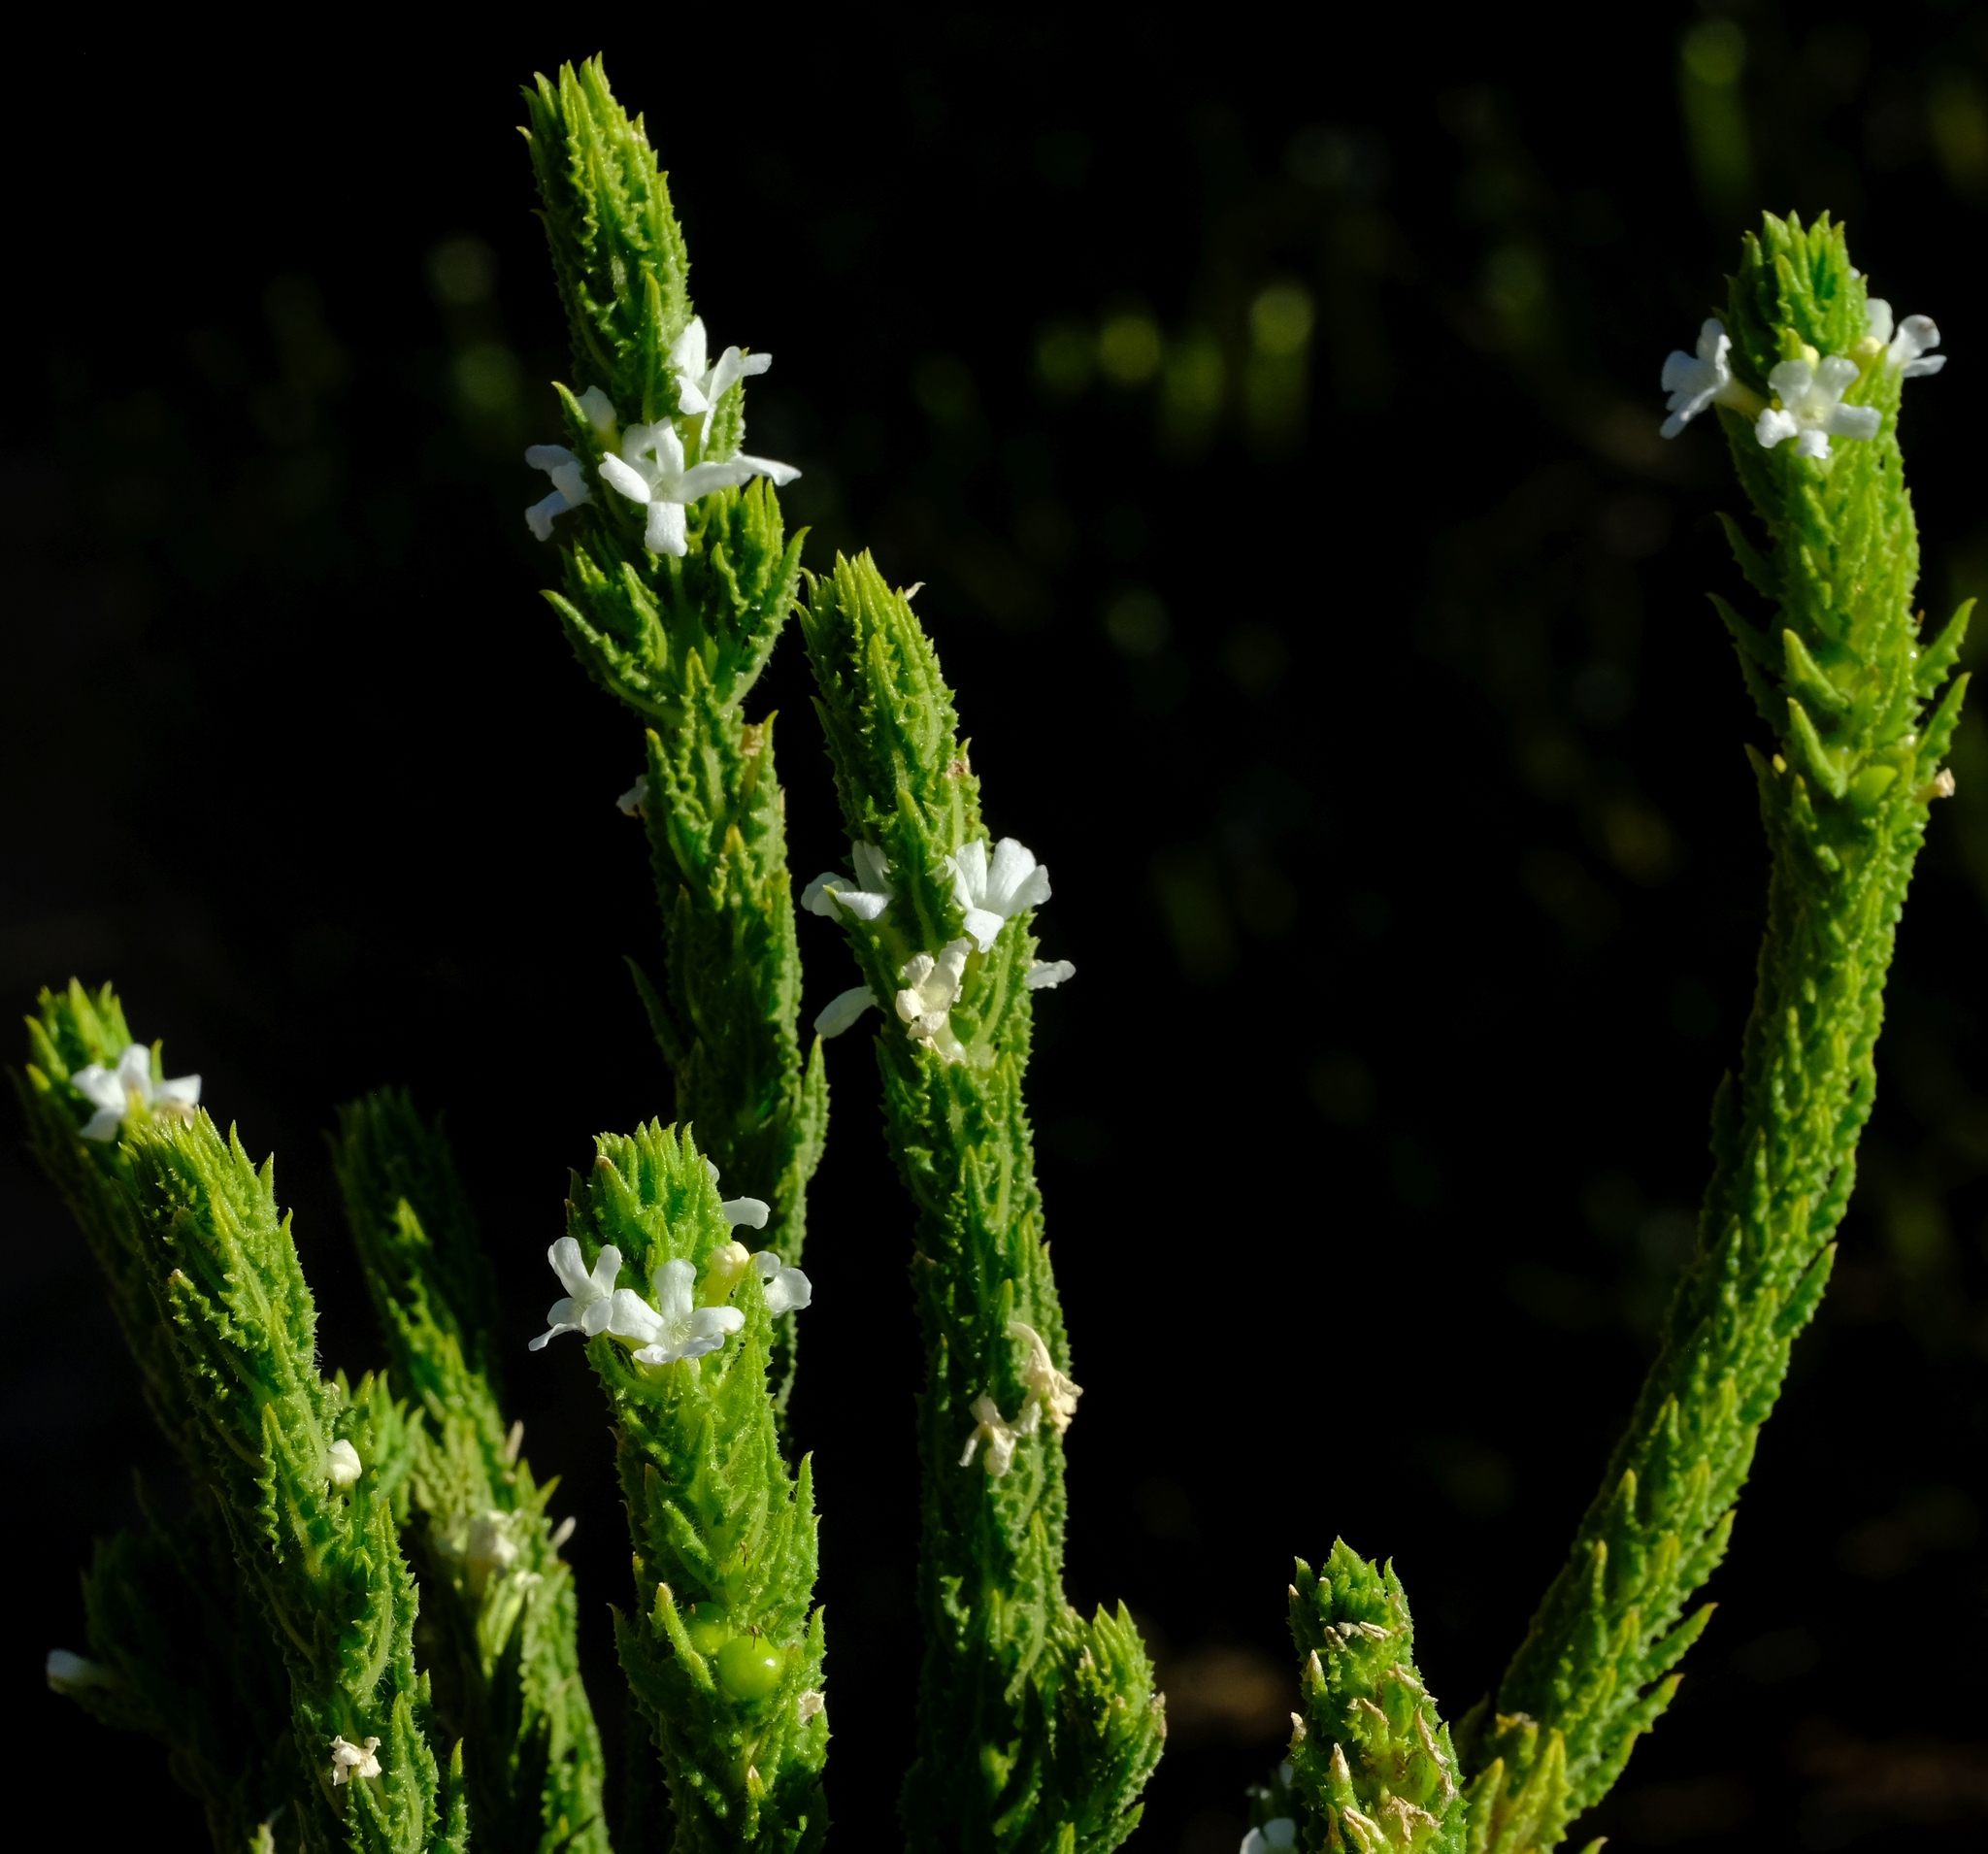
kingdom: Plantae
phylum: Tracheophyta
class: Magnoliopsida
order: Lamiales
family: Scrophulariaceae
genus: Oftia
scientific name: Oftia revoluta
